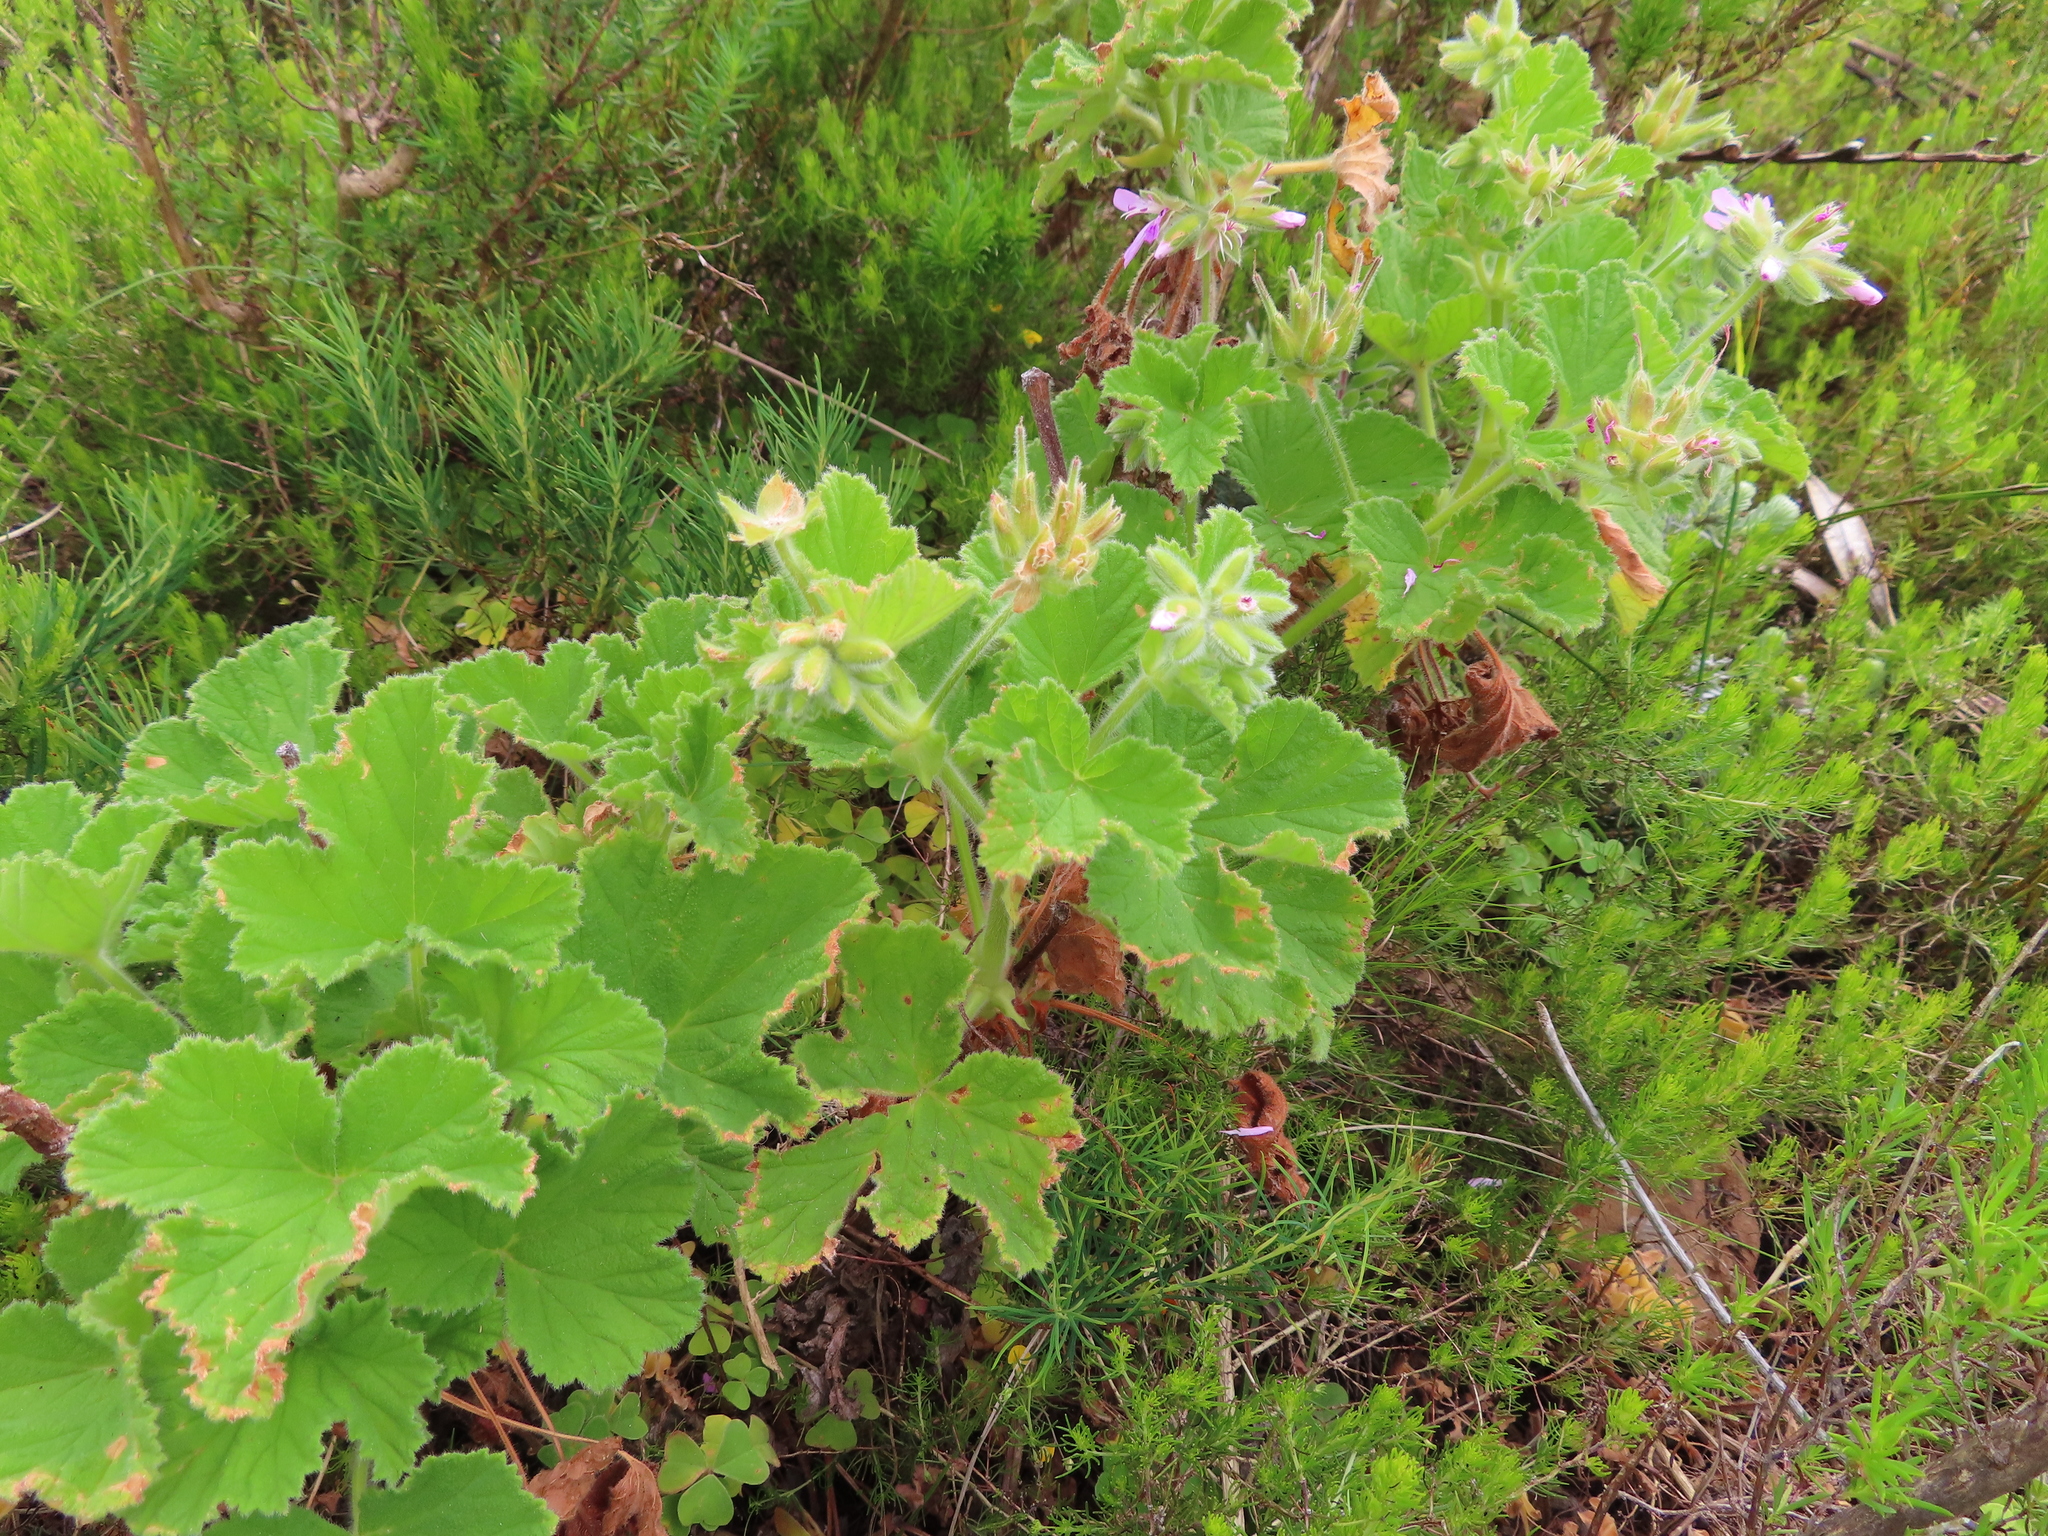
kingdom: Plantae
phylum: Tracheophyta
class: Magnoliopsida
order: Geraniales
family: Geraniaceae
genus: Pelargonium
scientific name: Pelargonium capitatum
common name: Rose scented geranium
